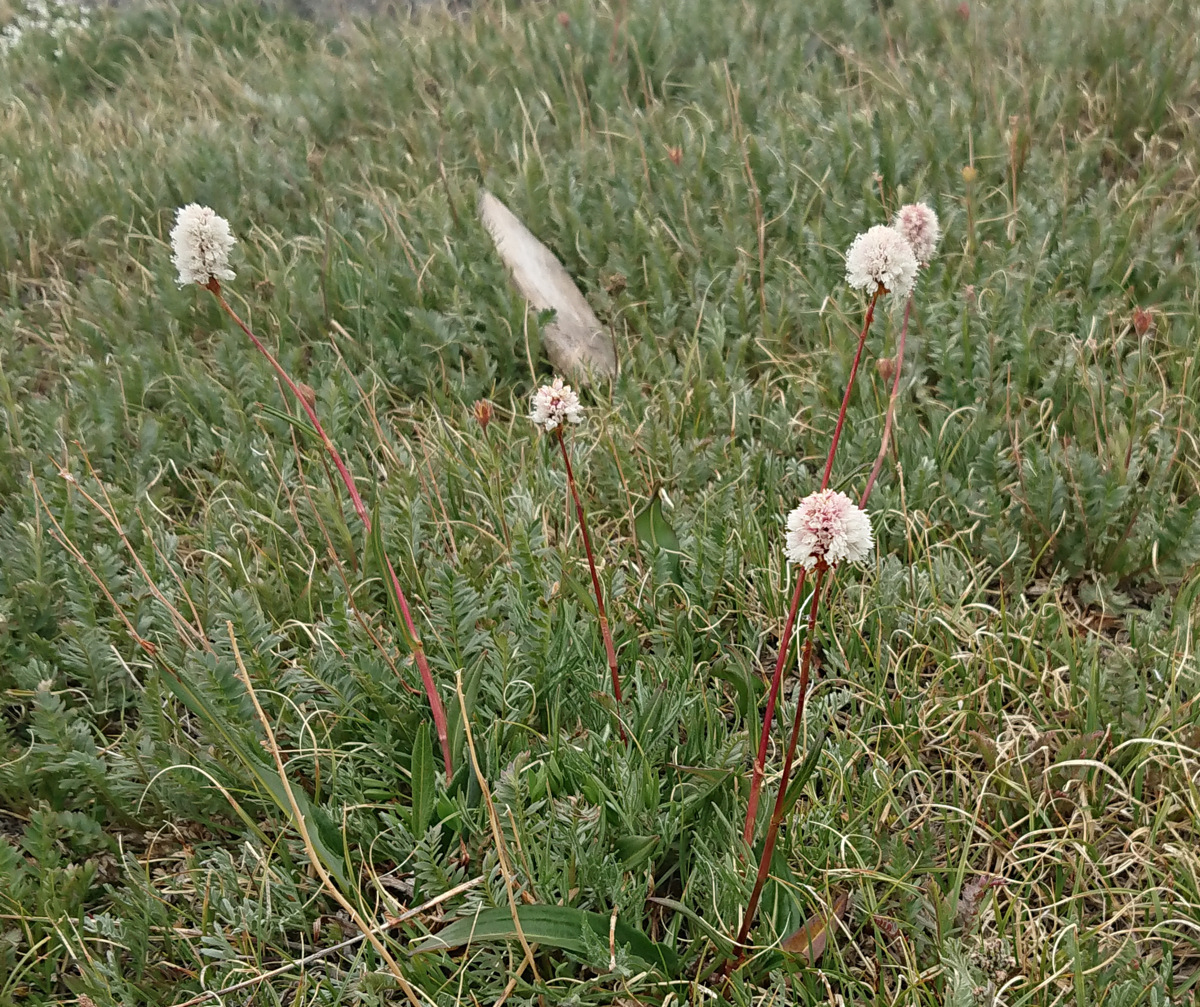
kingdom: Plantae
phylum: Tracheophyta
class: Magnoliopsida
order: Caryophyllales
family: Polygonaceae
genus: Bistorta
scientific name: Bistorta bistortoides
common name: American bistort
